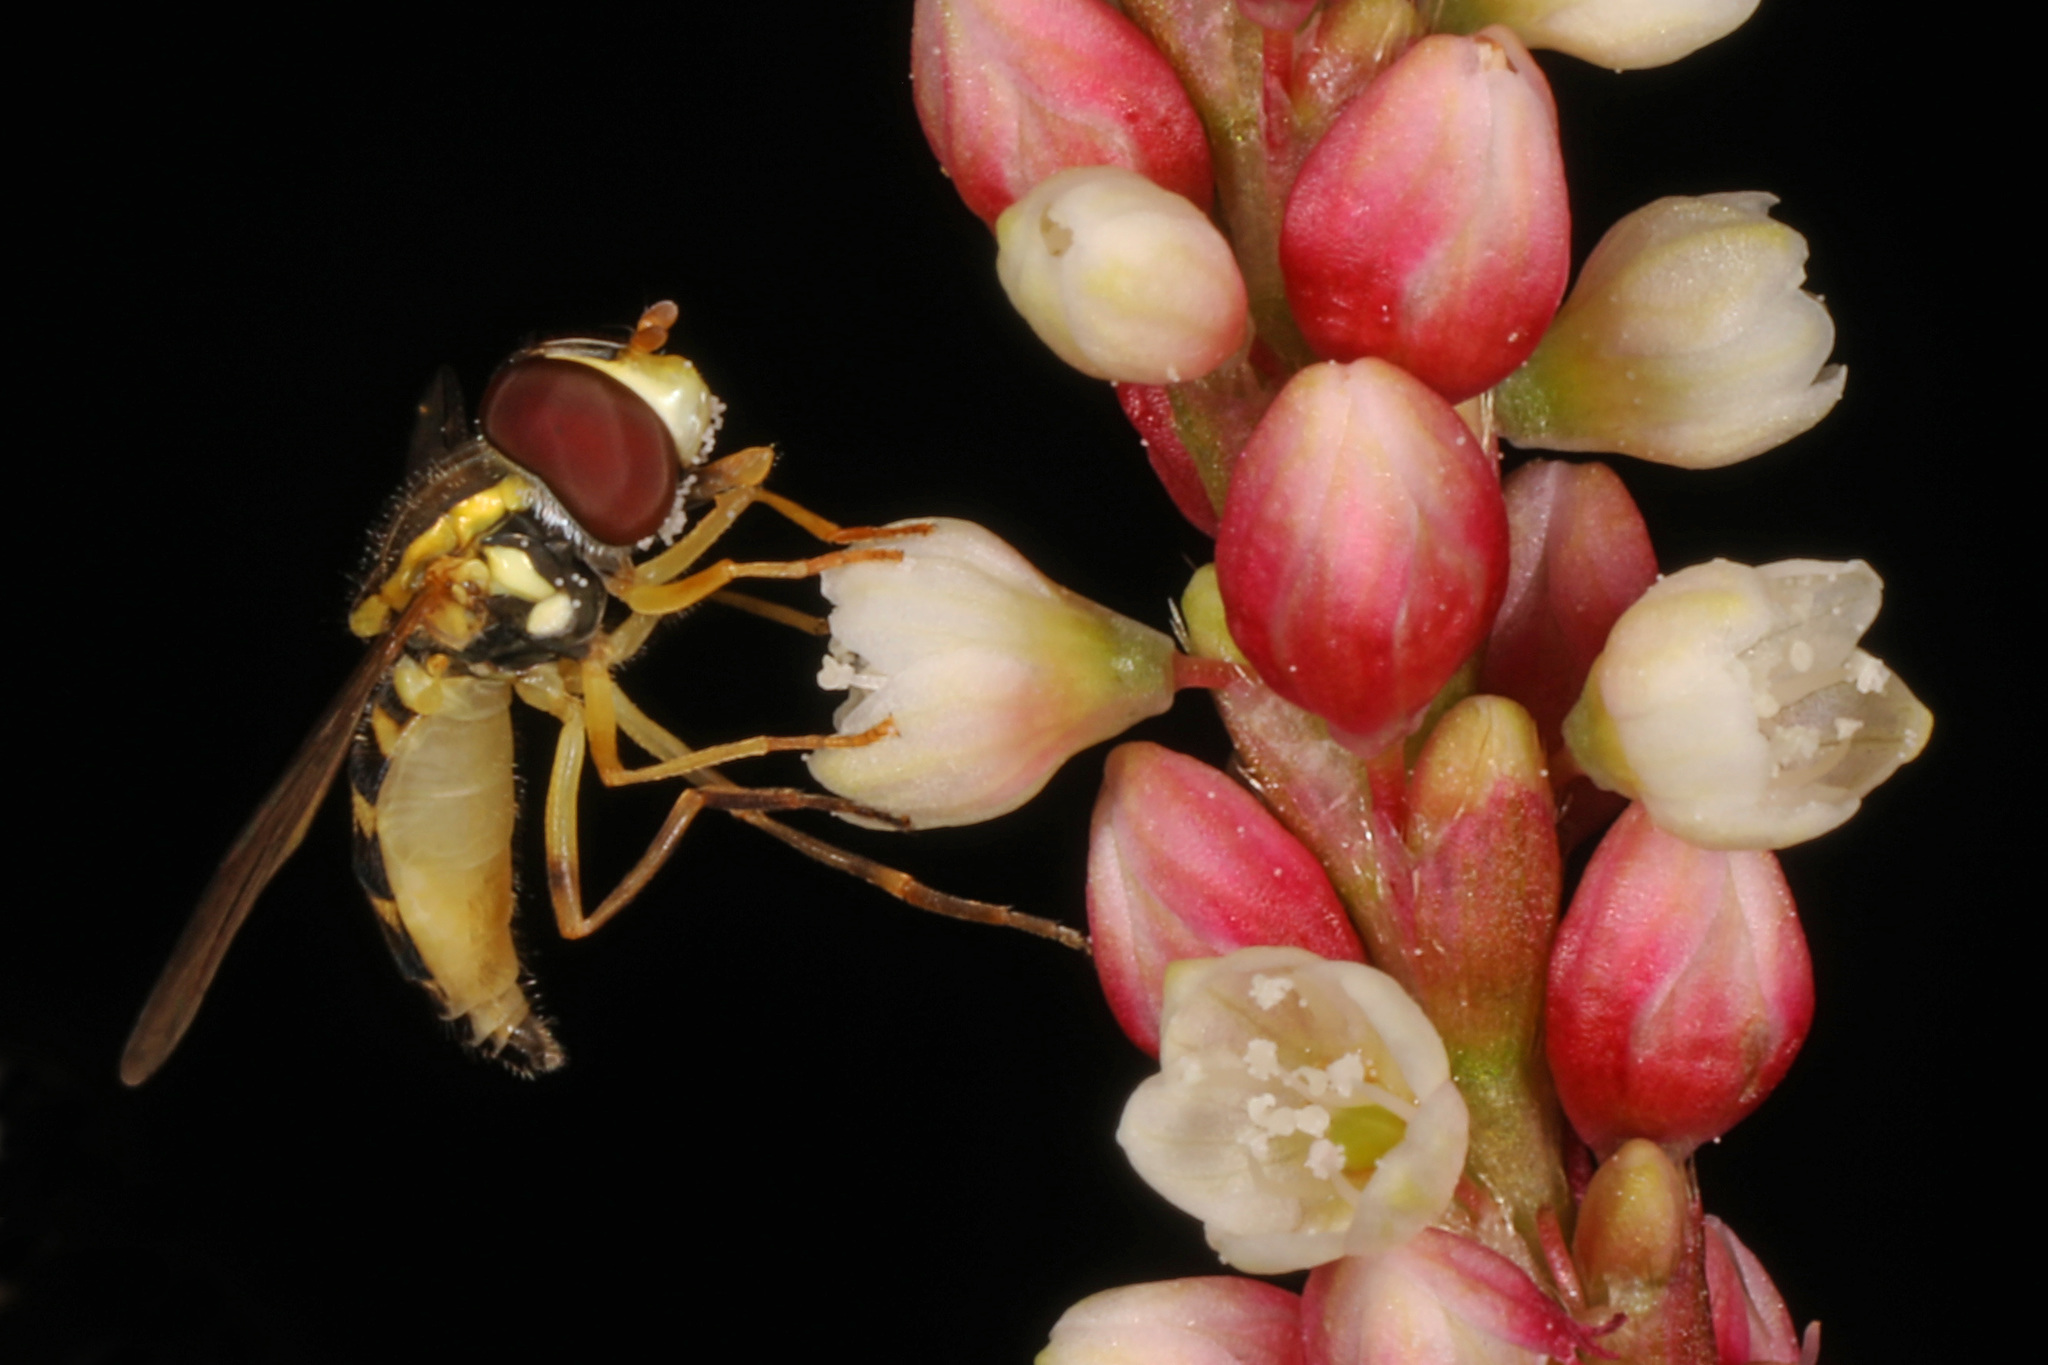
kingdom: Animalia
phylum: Arthropoda
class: Insecta
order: Diptera
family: Syrphidae
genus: Toxomerus
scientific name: Toxomerus geminatus
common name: Eastern calligrapher
